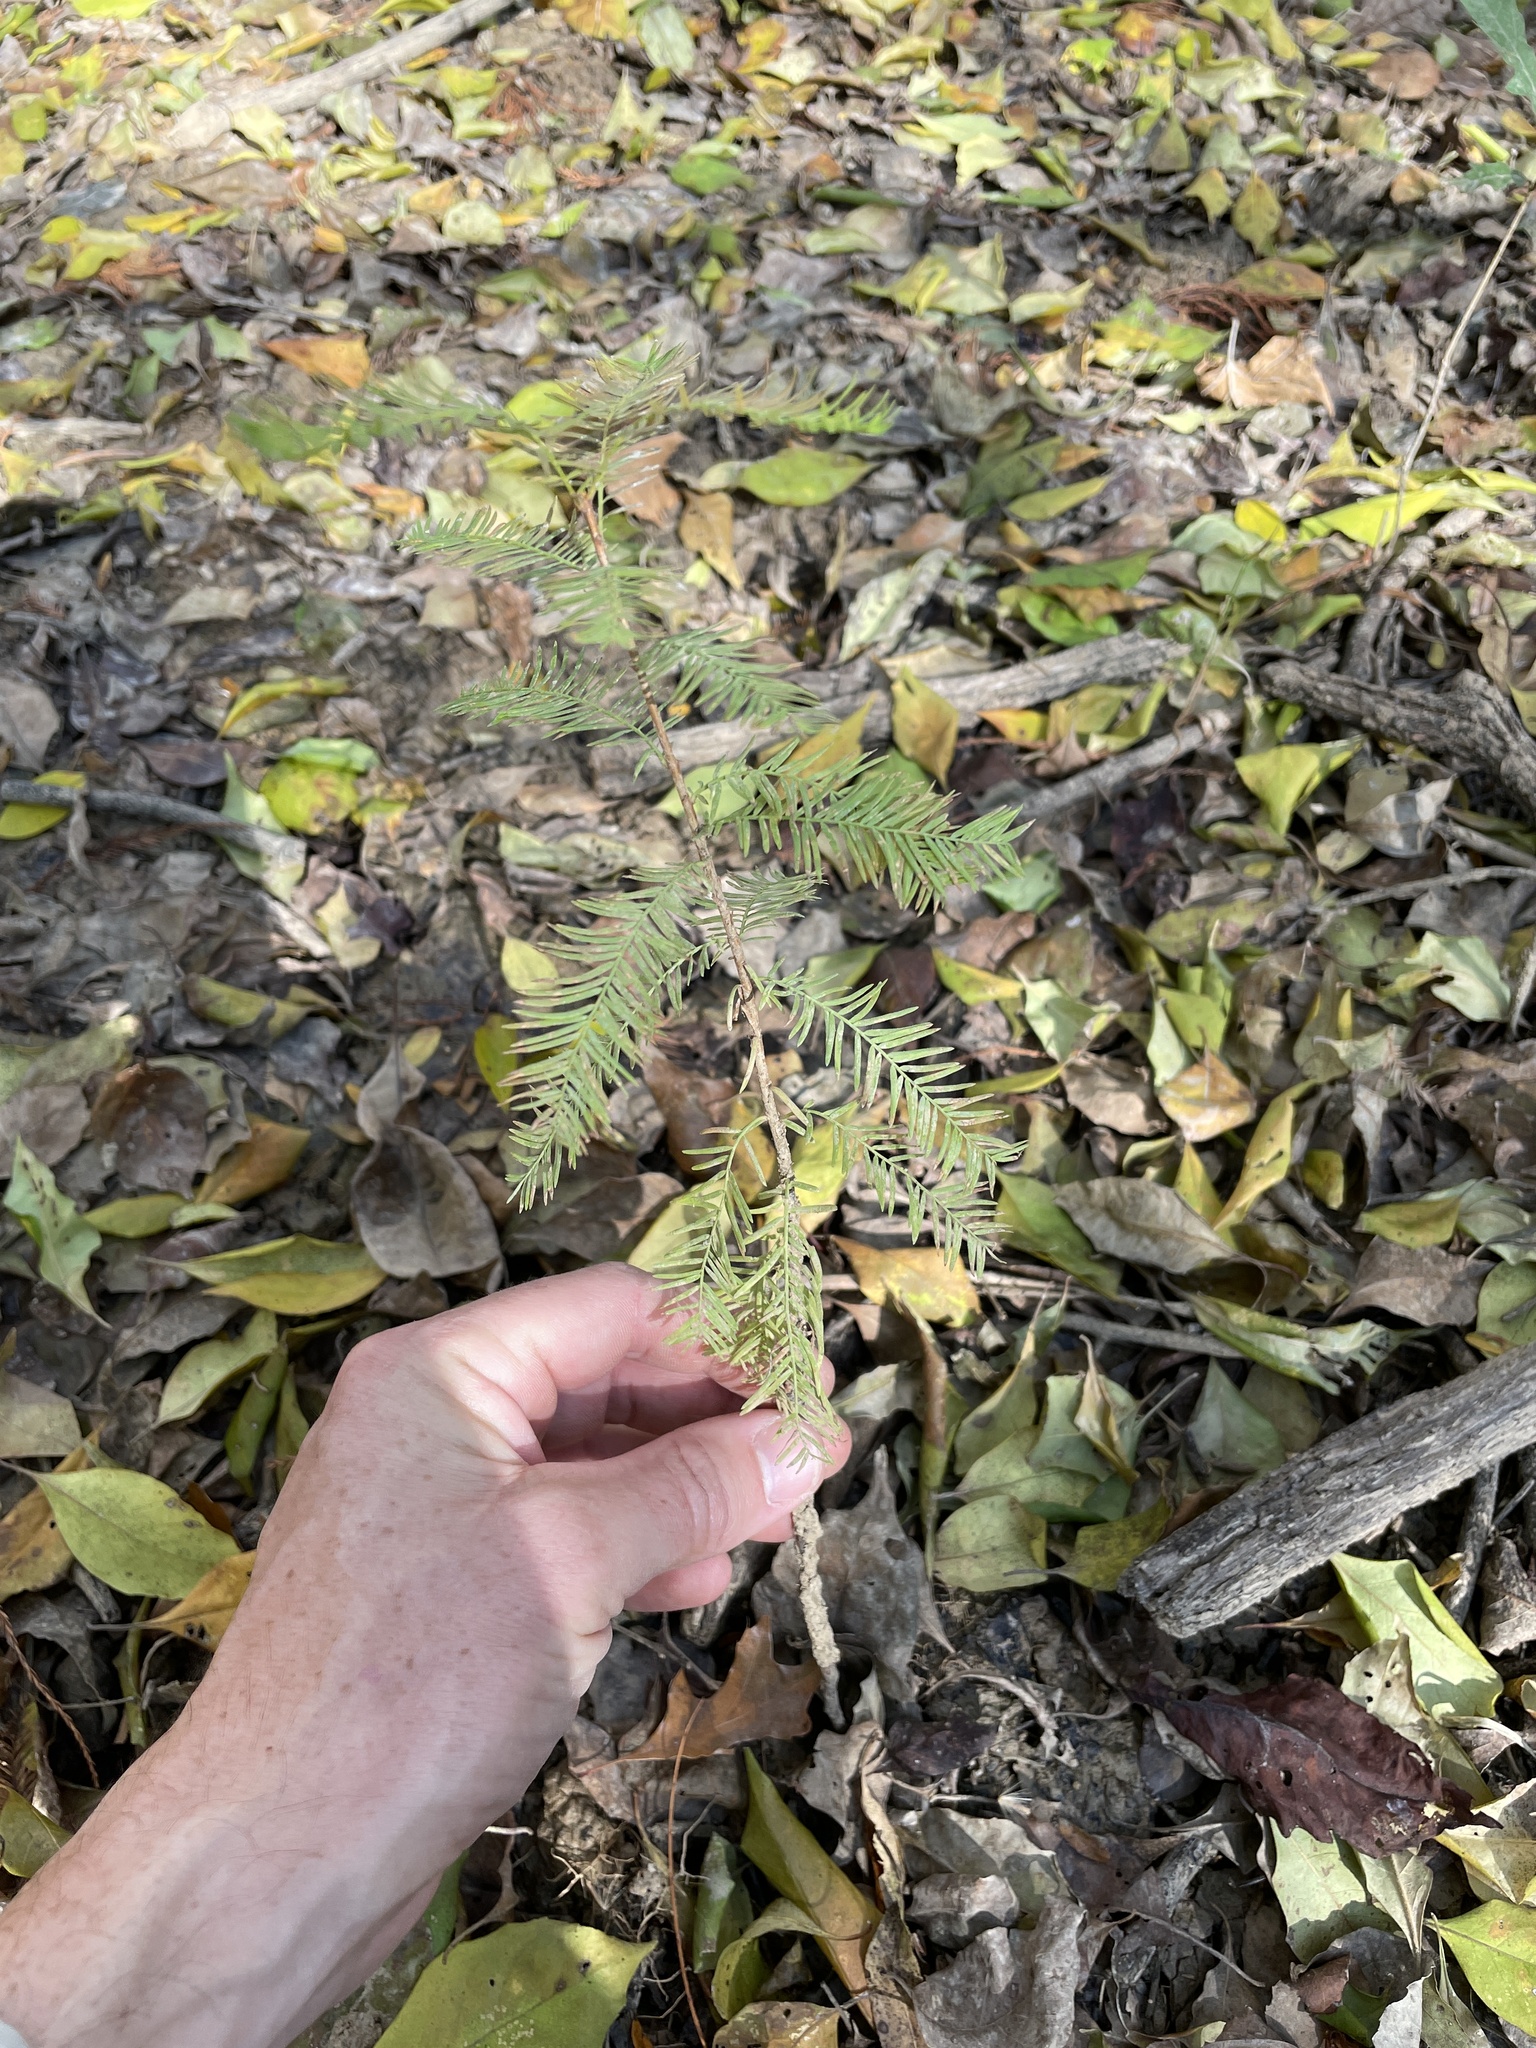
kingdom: Plantae
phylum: Tracheophyta
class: Pinopsida
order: Pinales
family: Cupressaceae
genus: Taxodium
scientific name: Taxodium distichum
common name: Bald cypress
